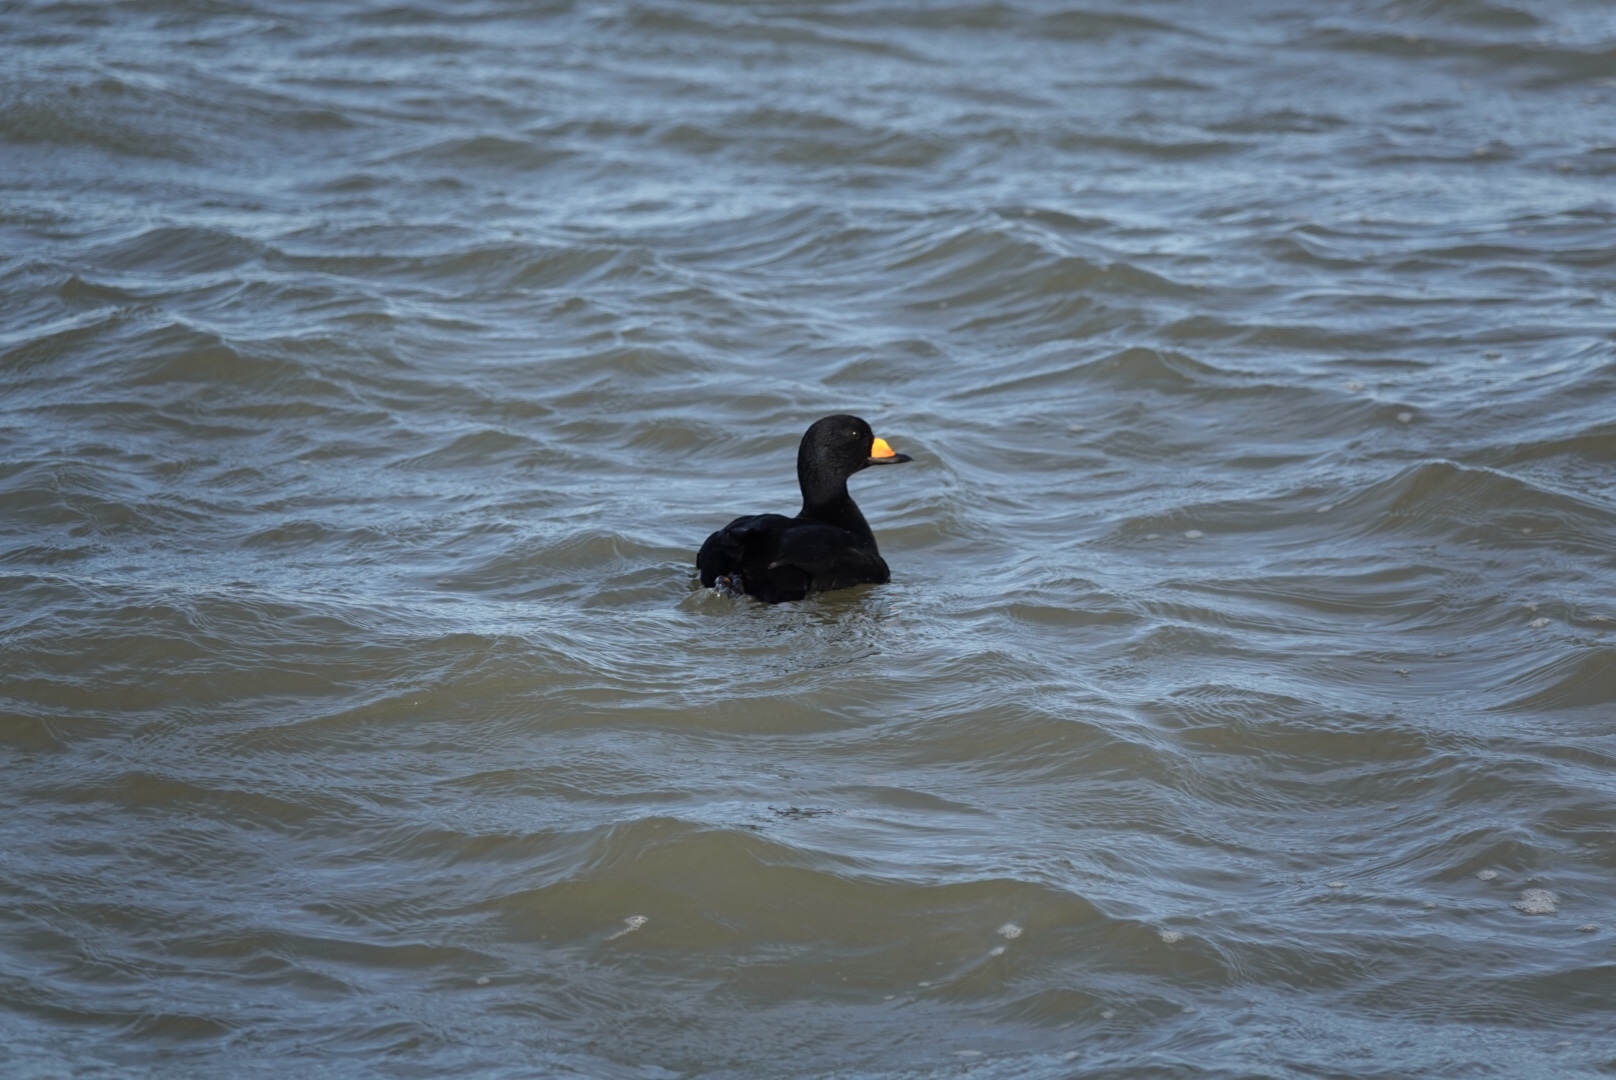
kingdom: Animalia
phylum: Chordata
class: Aves
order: Anseriformes
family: Anatidae
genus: Melanitta
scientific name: Melanitta americana
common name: Black scoter
